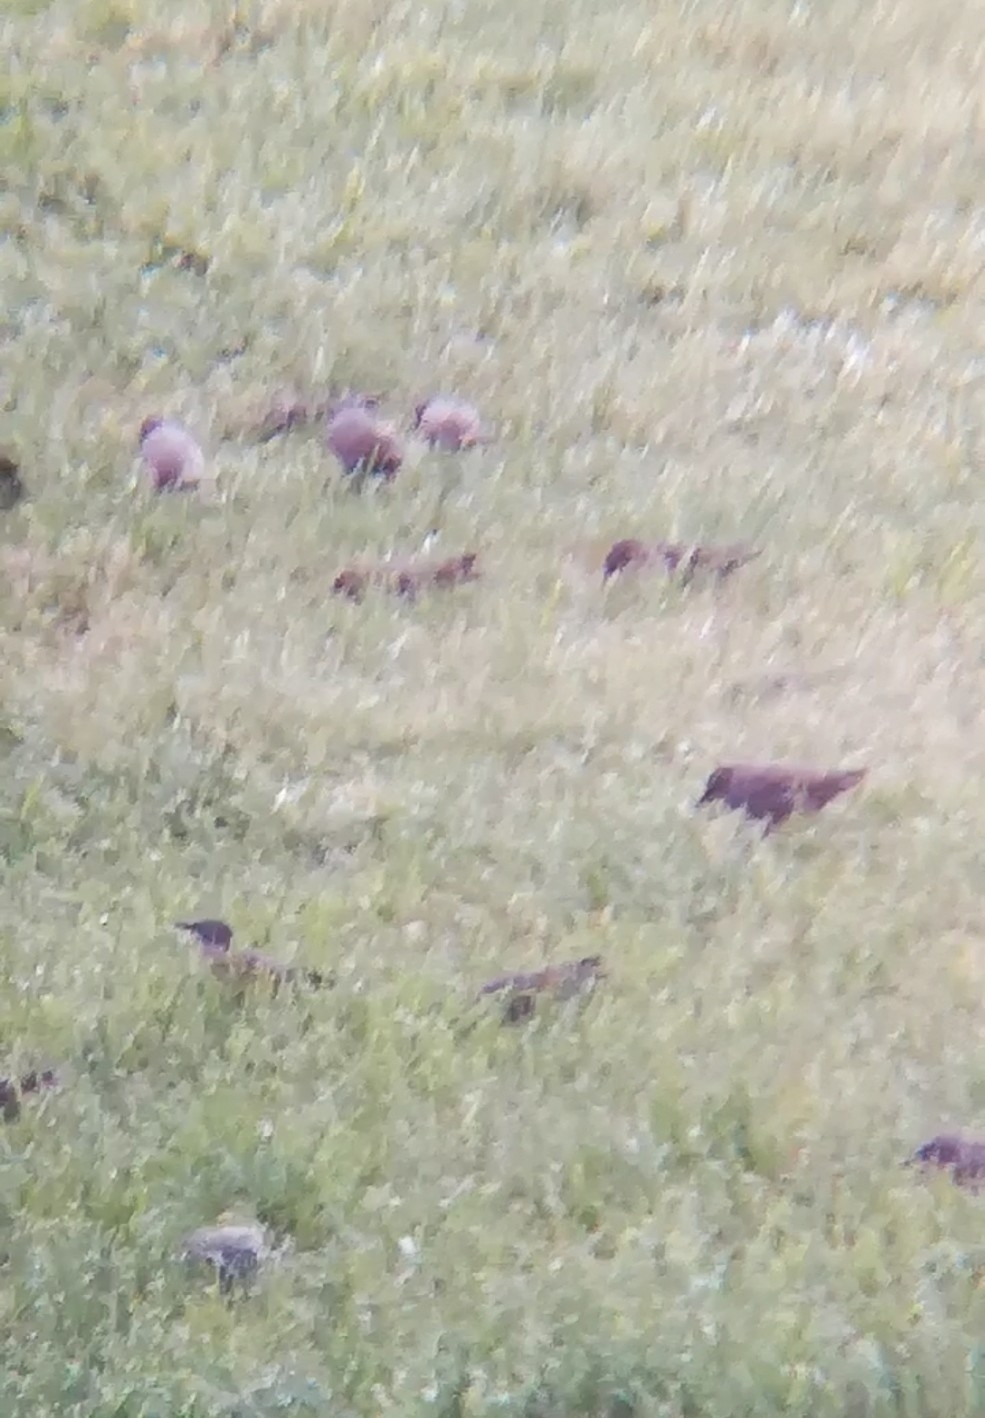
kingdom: Animalia
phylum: Chordata
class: Aves
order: Passeriformes
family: Sturnidae
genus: Sturnus
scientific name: Sturnus vulgaris
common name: Common starling
